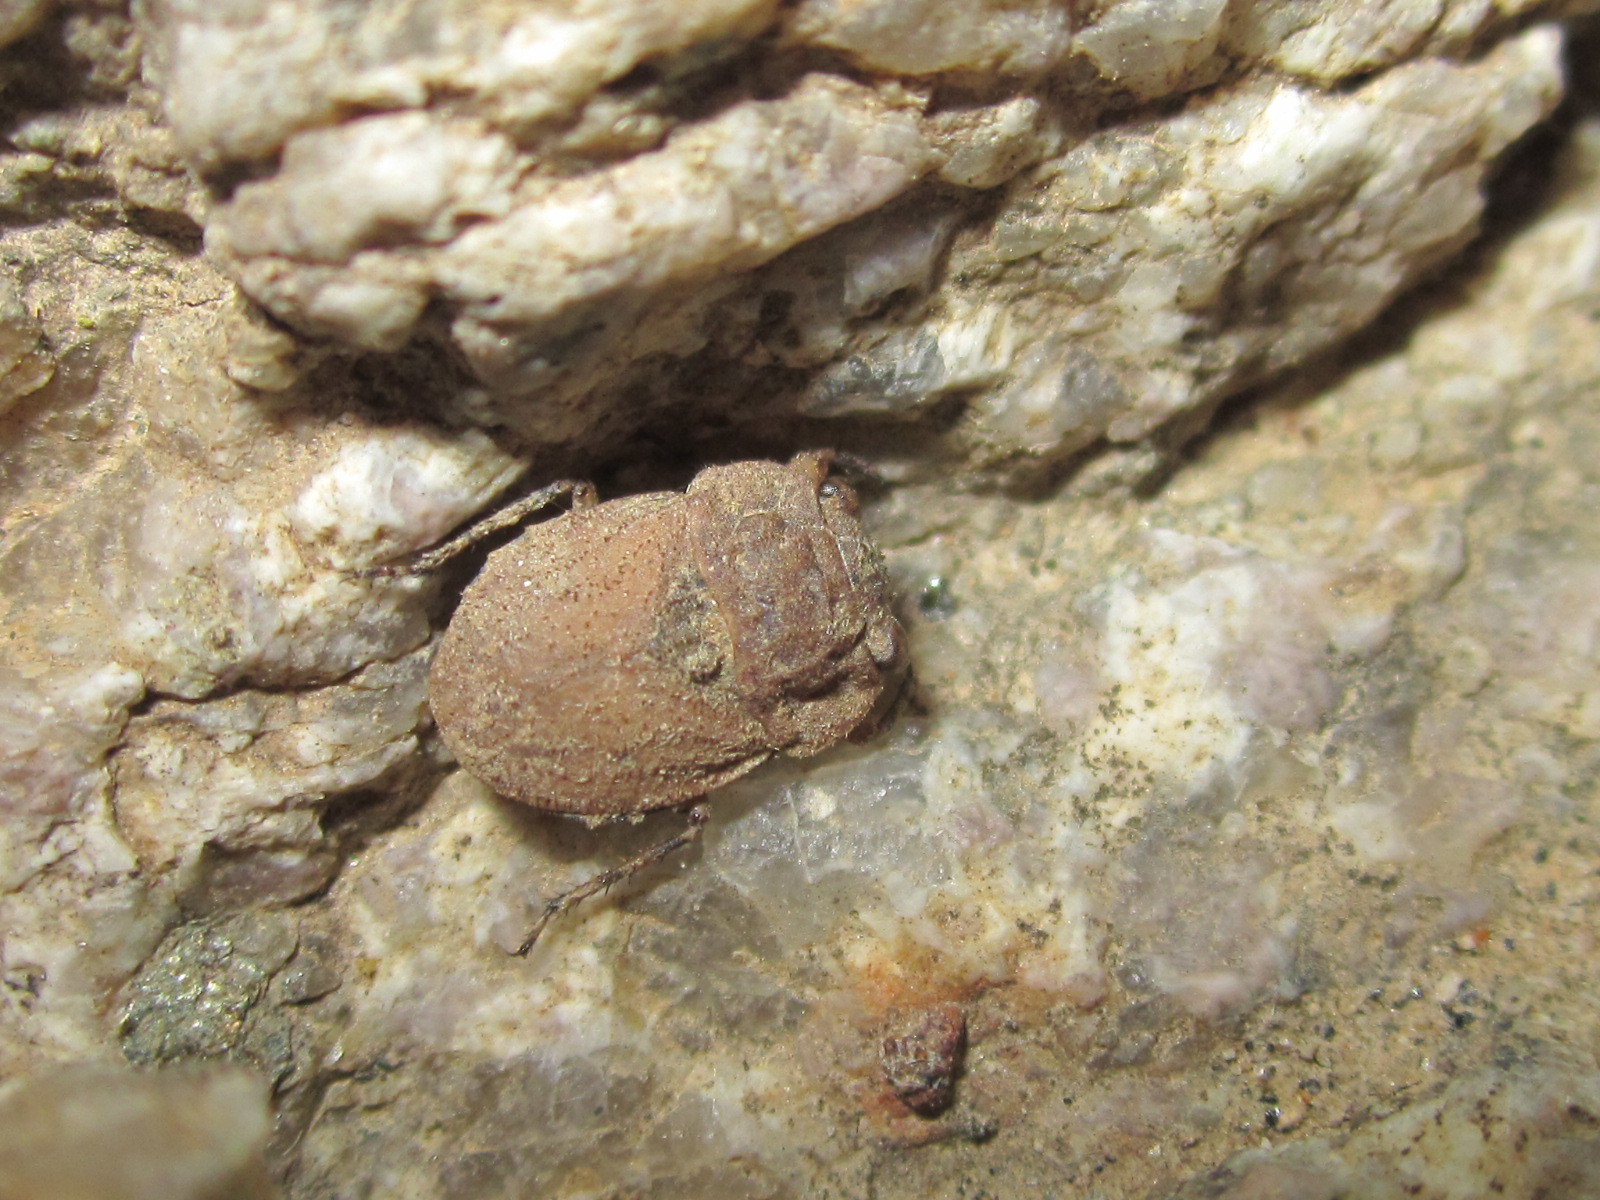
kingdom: Animalia
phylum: Arthropoda
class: Insecta
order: Hemiptera
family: Gelastocoridae
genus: Nerthra
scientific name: Nerthra parvula
